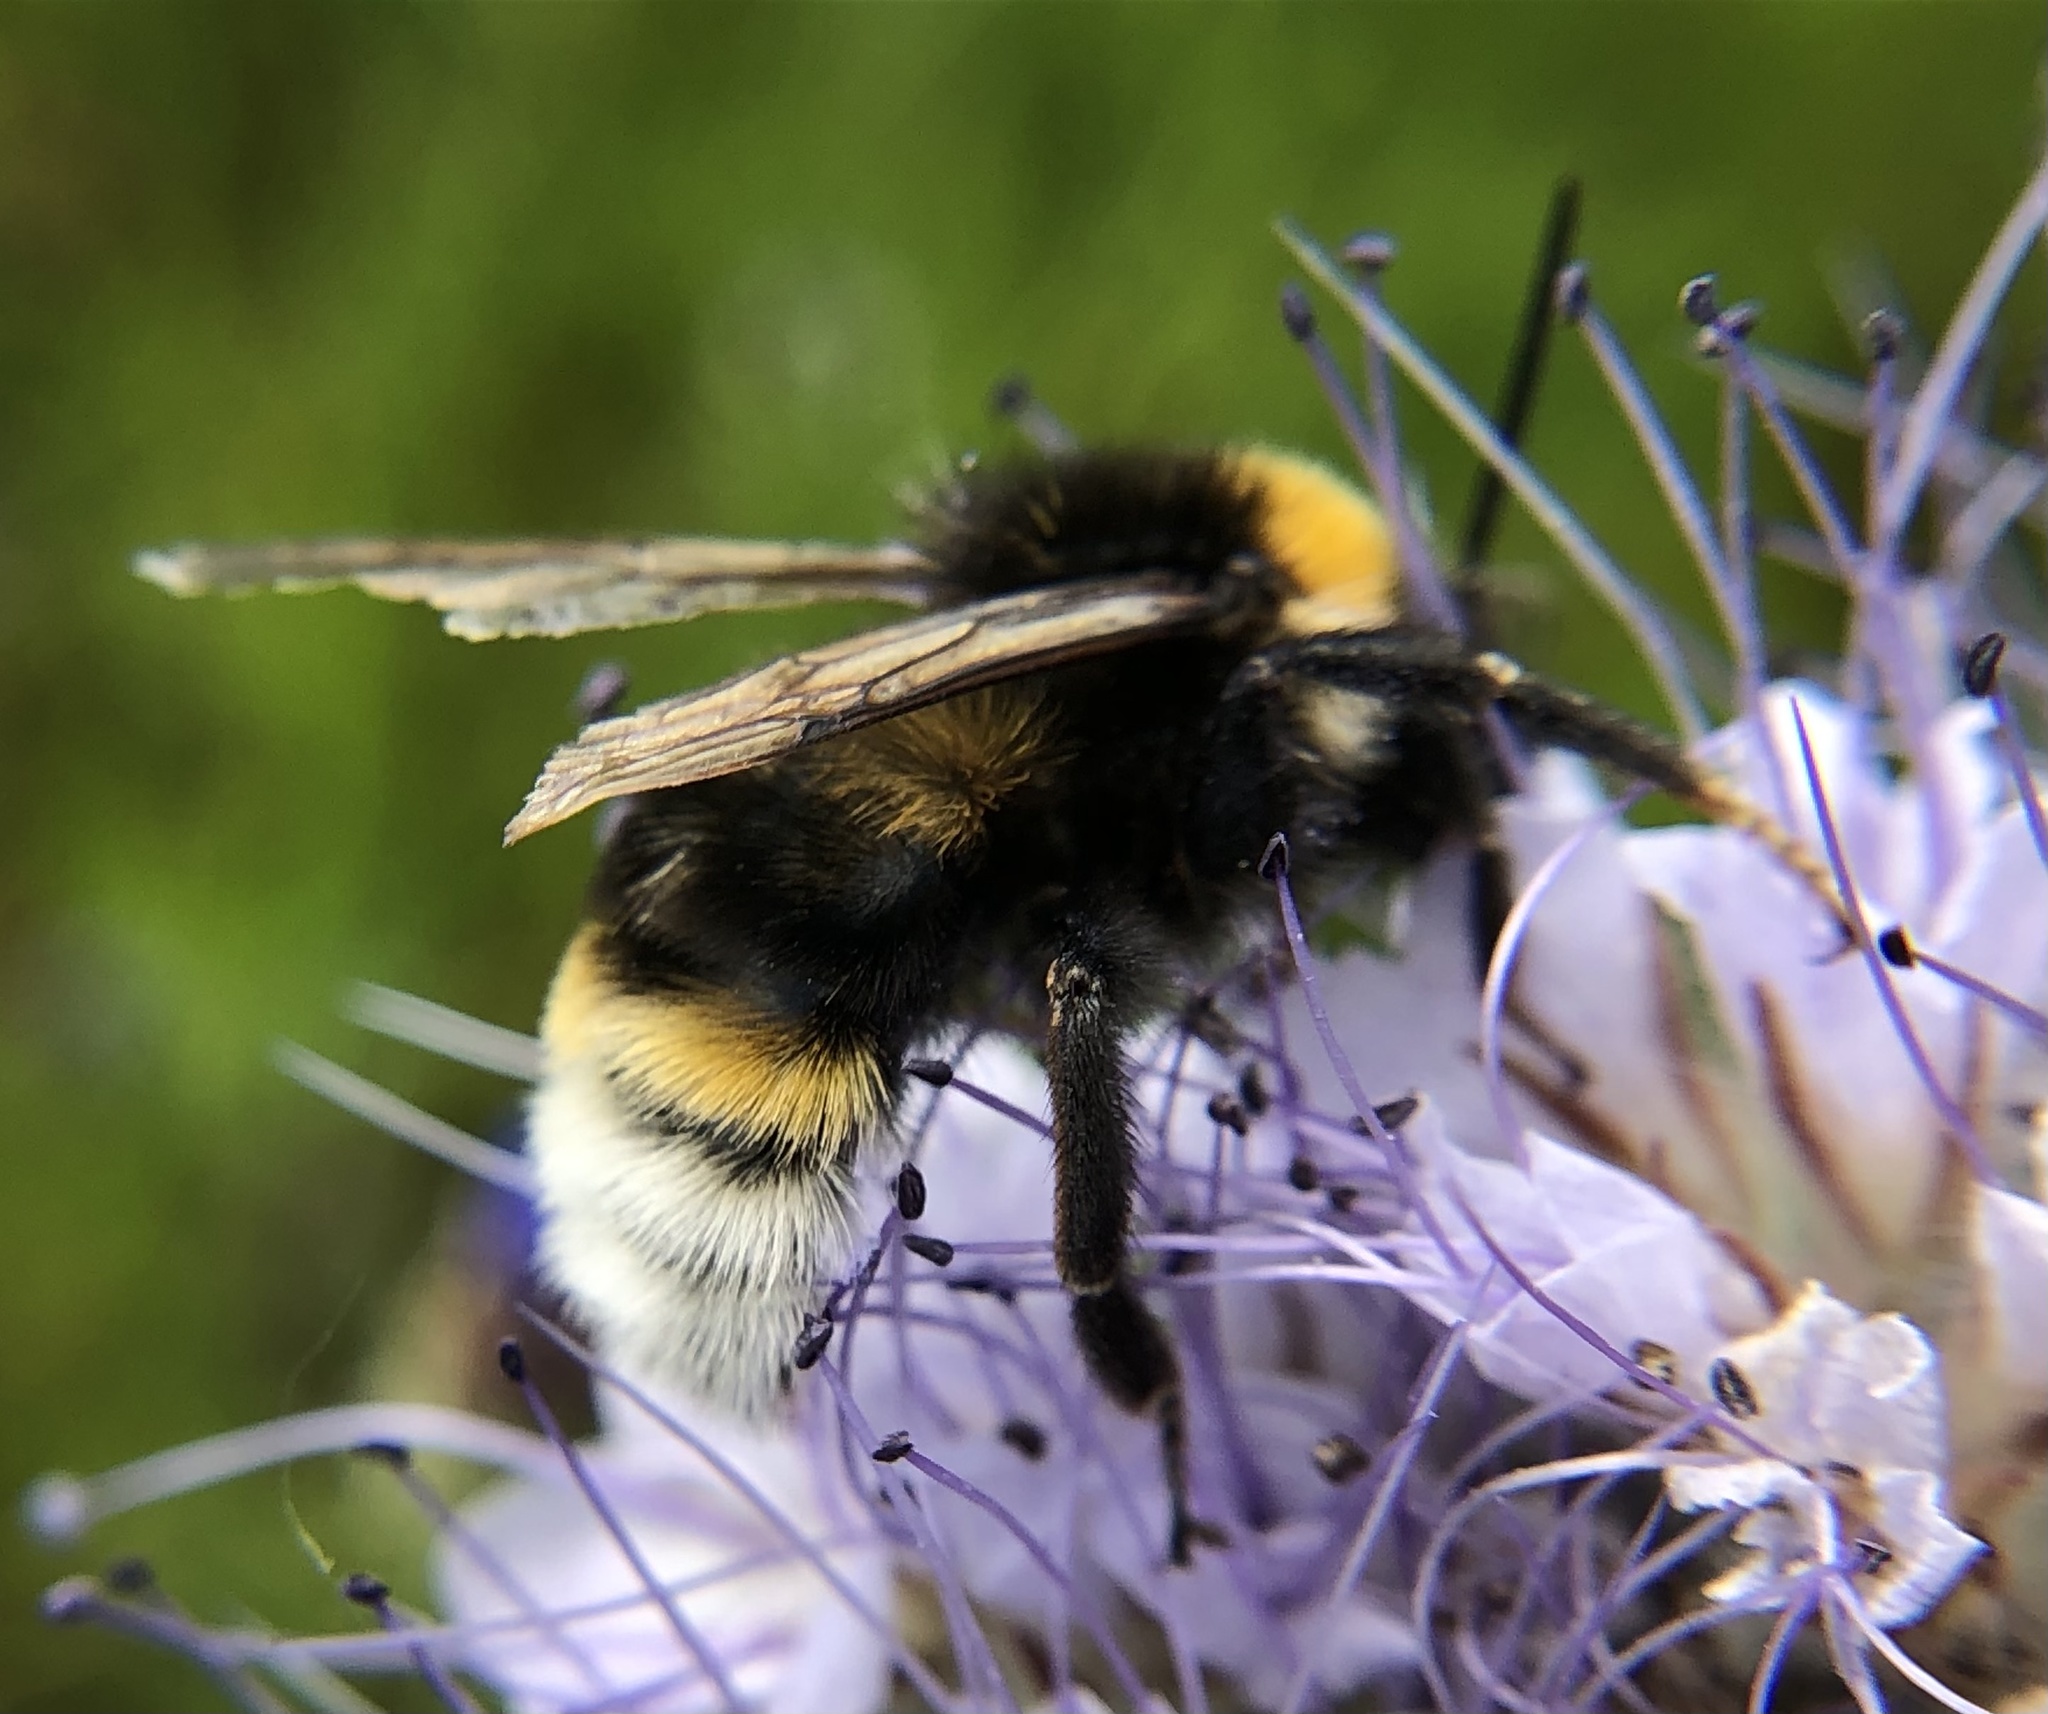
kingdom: Animalia
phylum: Arthropoda
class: Insecta
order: Hymenoptera
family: Apidae
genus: Bombus
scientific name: Bombus vestalis
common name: Vestal cuckoo bee
